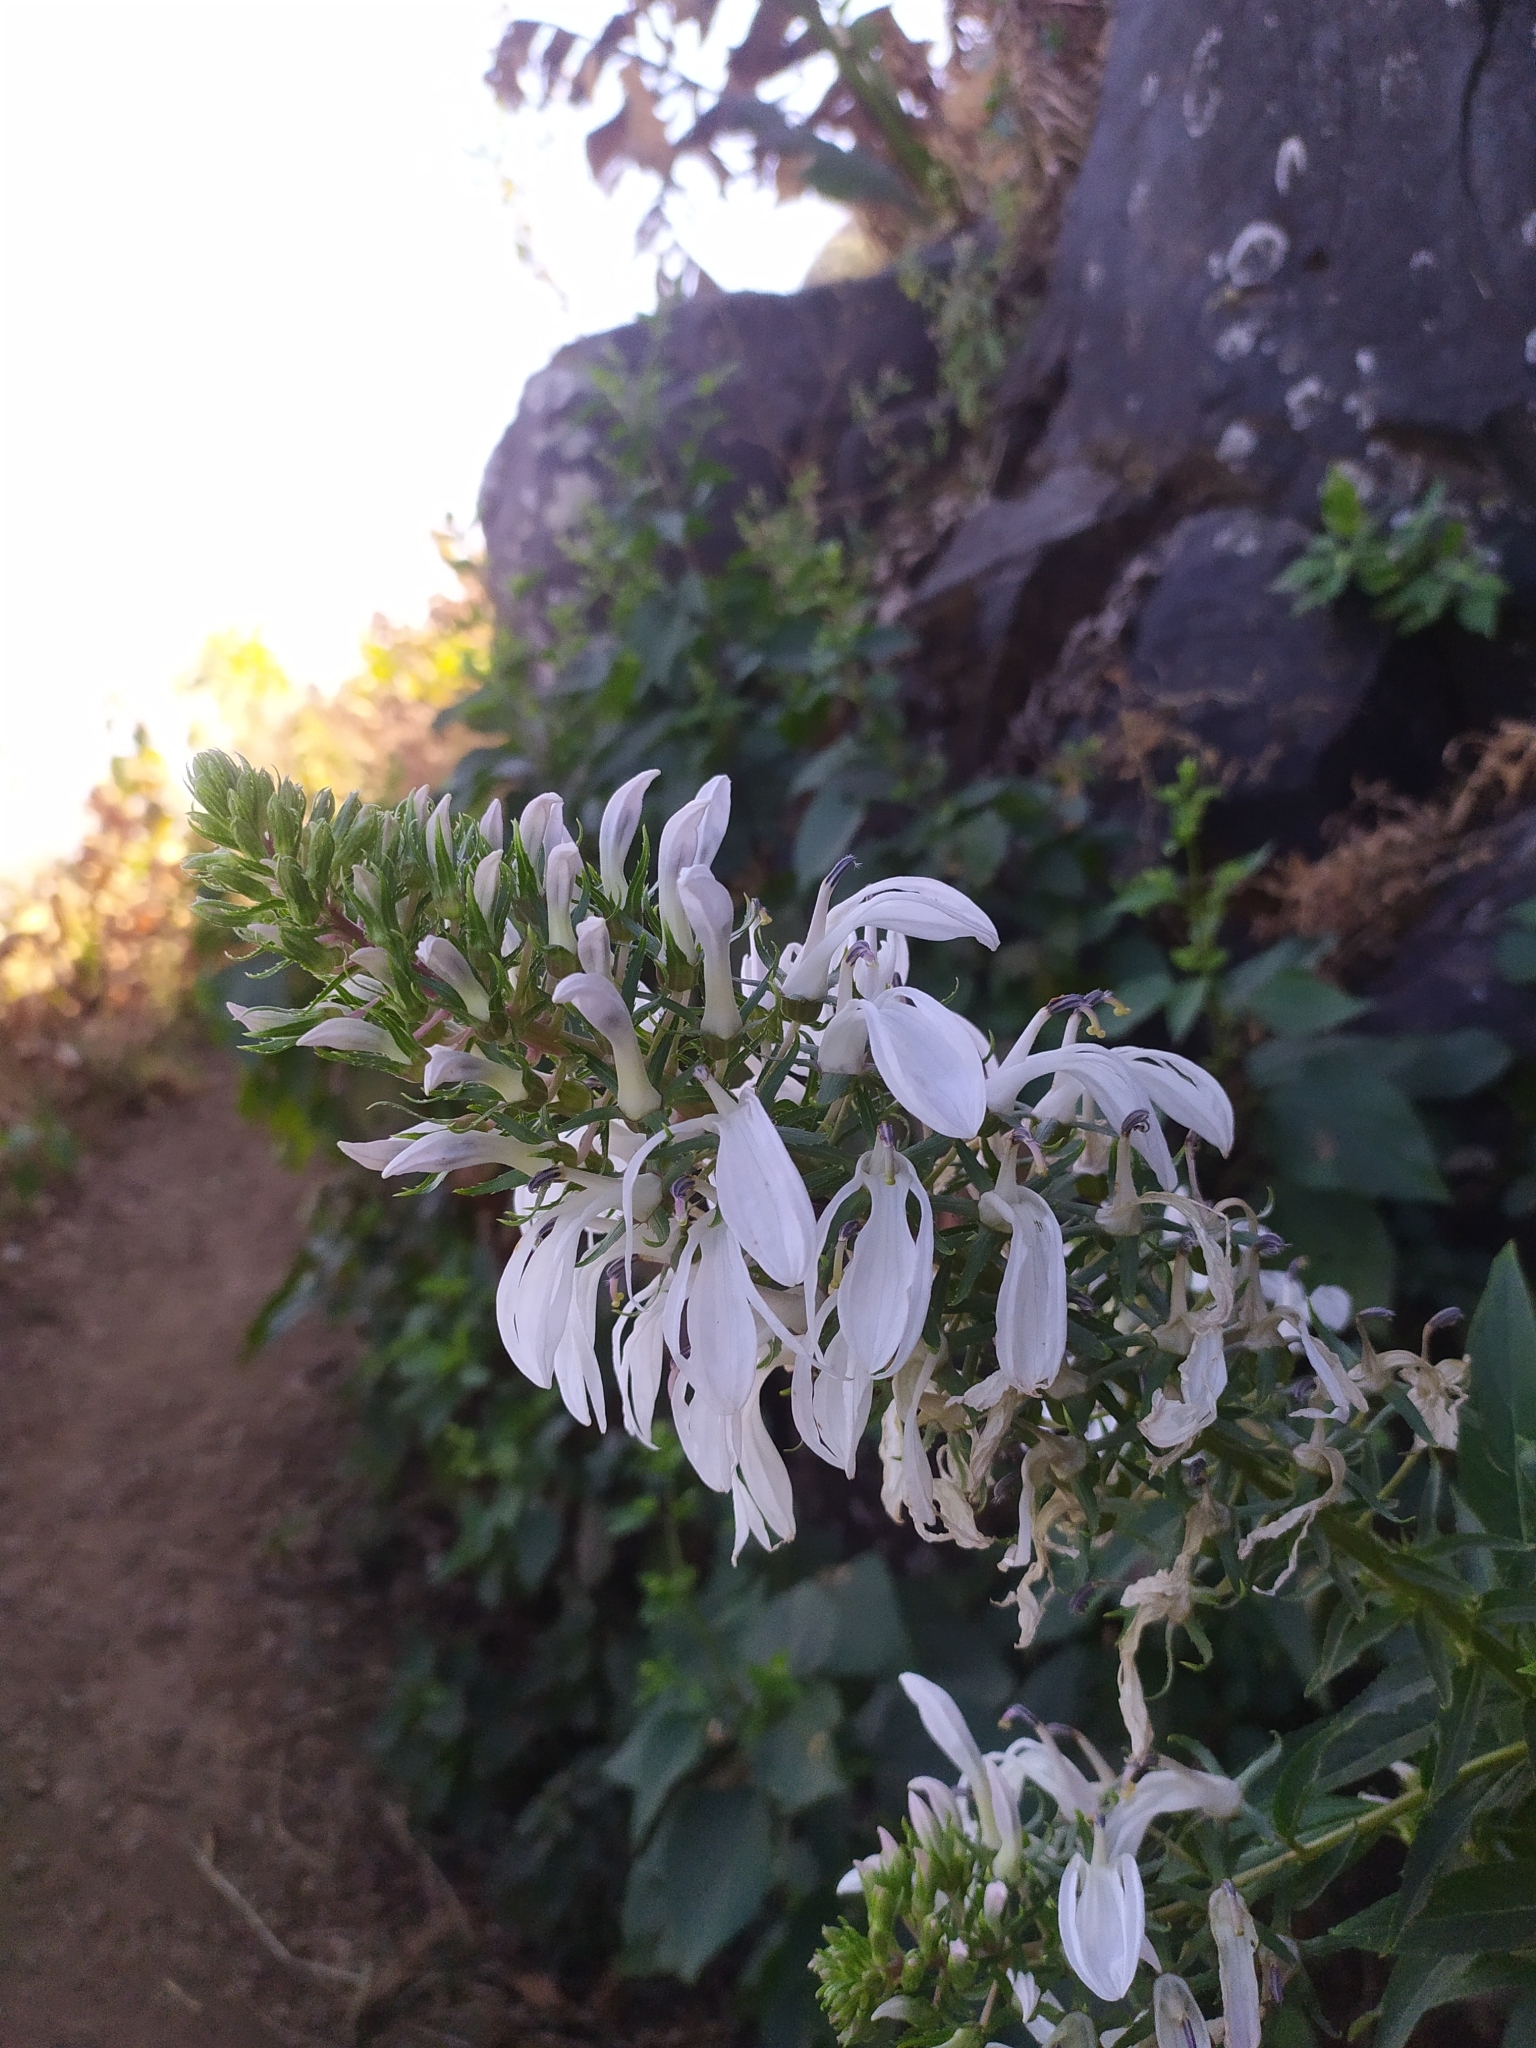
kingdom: Plantae
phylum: Tracheophyta
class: Magnoliopsida
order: Asterales
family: Campanulaceae
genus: Lobelia
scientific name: Lobelia nicotianifolia
